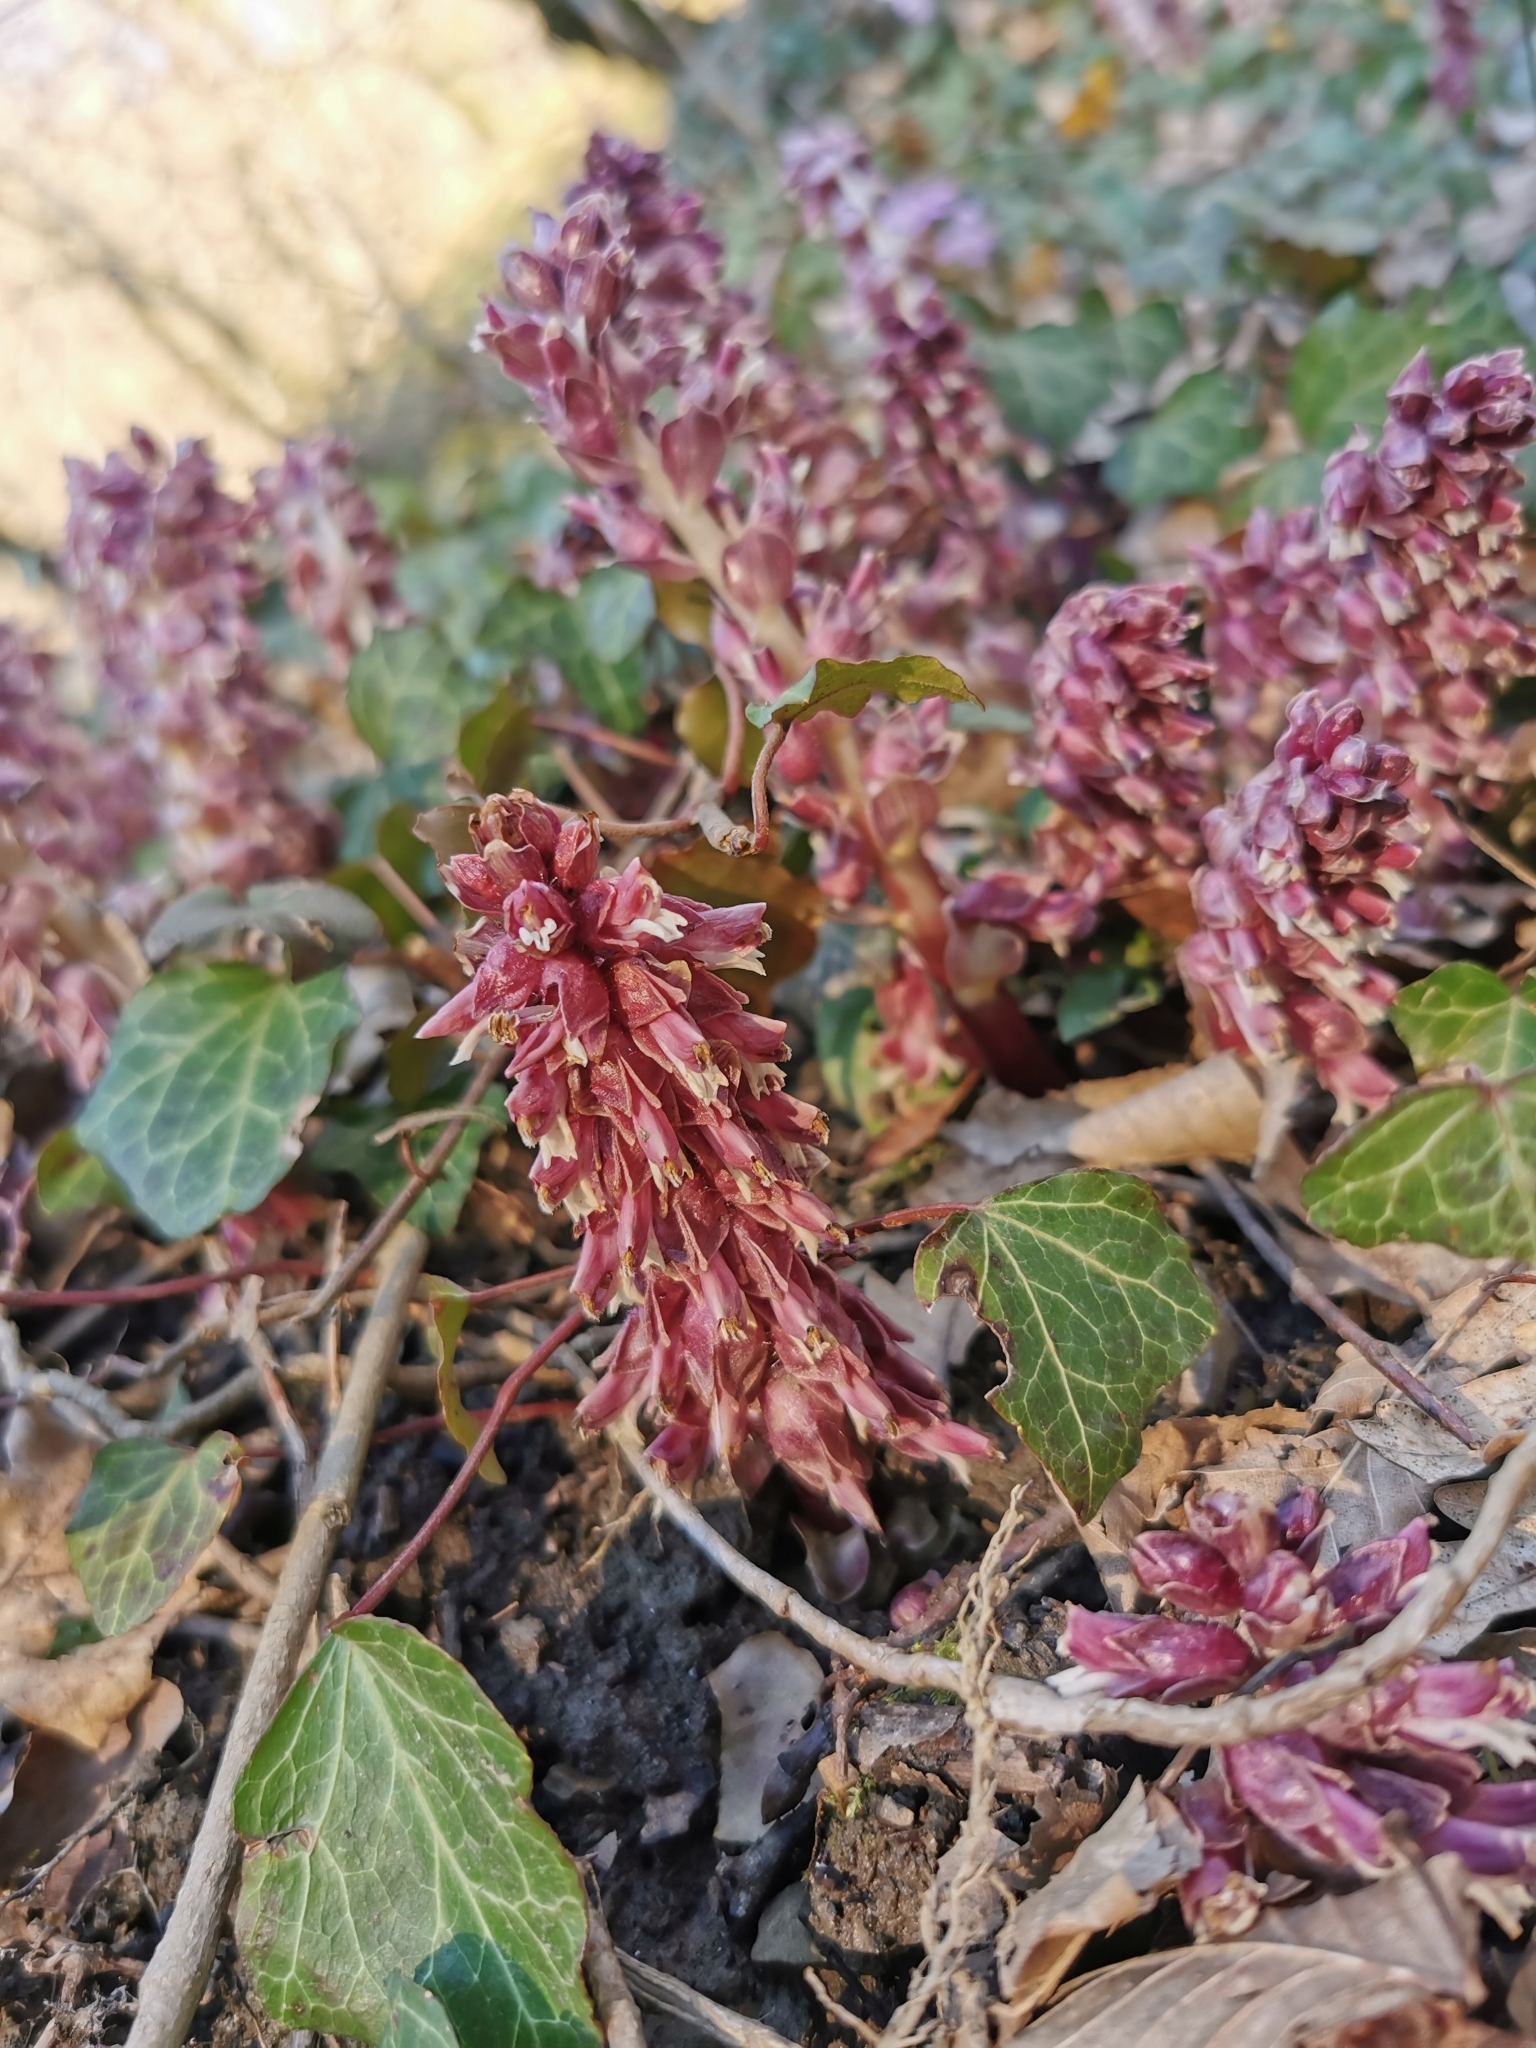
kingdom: Plantae
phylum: Tracheophyta
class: Magnoliopsida
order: Lamiales
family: Orobanchaceae
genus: Lathraea
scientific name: Lathraea squamaria
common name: Toothwort
